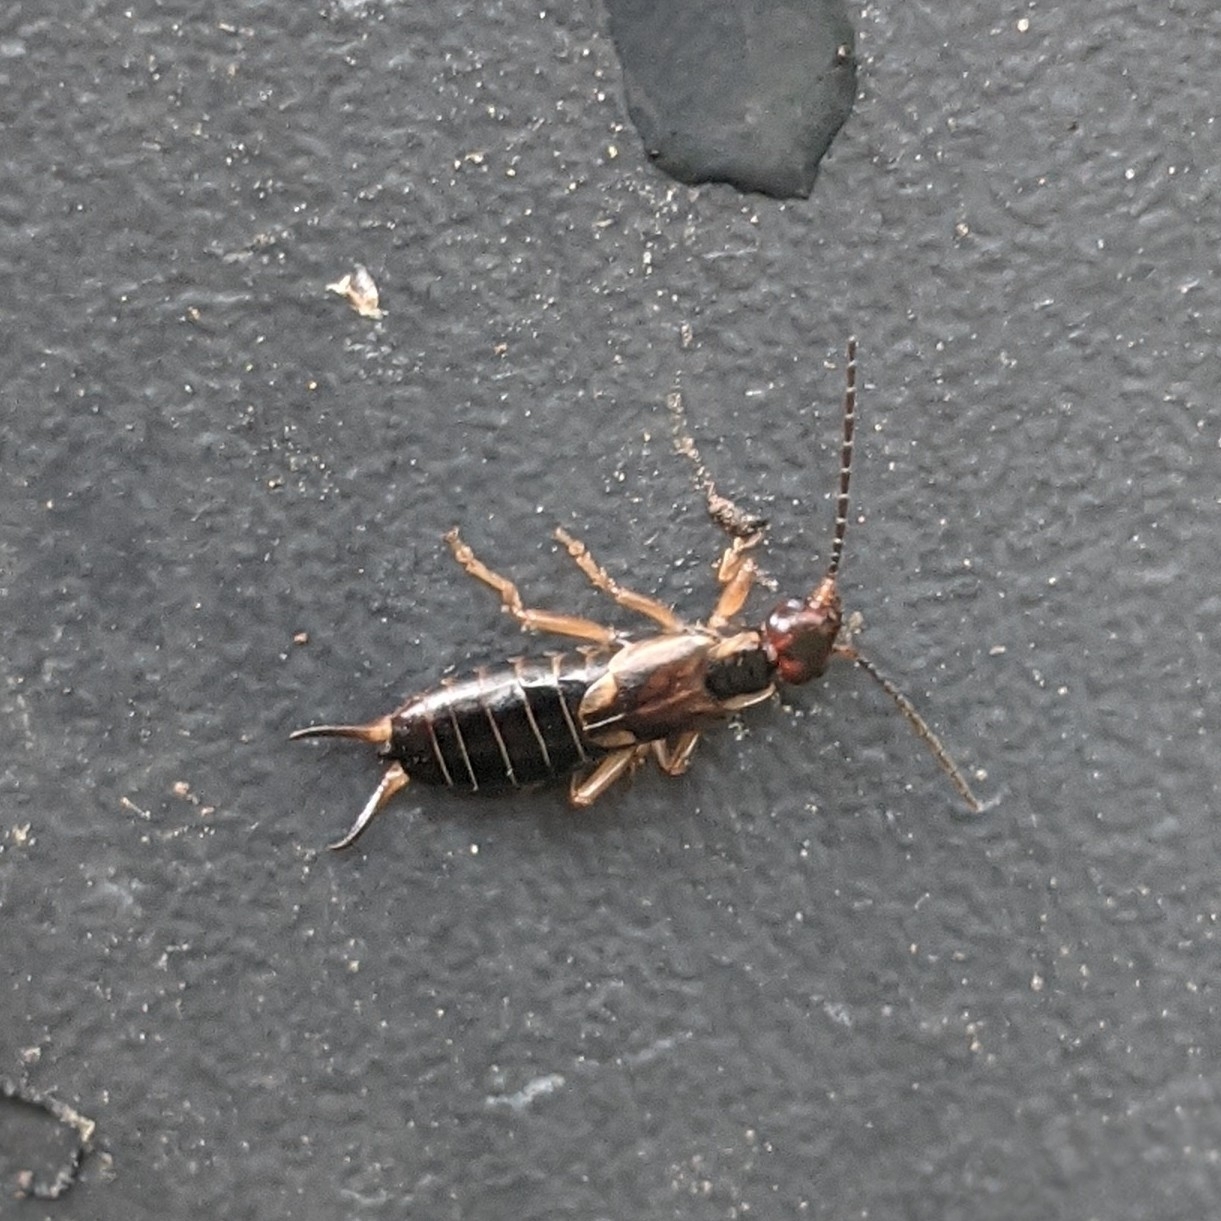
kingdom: Animalia
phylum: Arthropoda
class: Insecta
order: Dermaptera
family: Forficulidae
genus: Forficula
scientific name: Forficula
